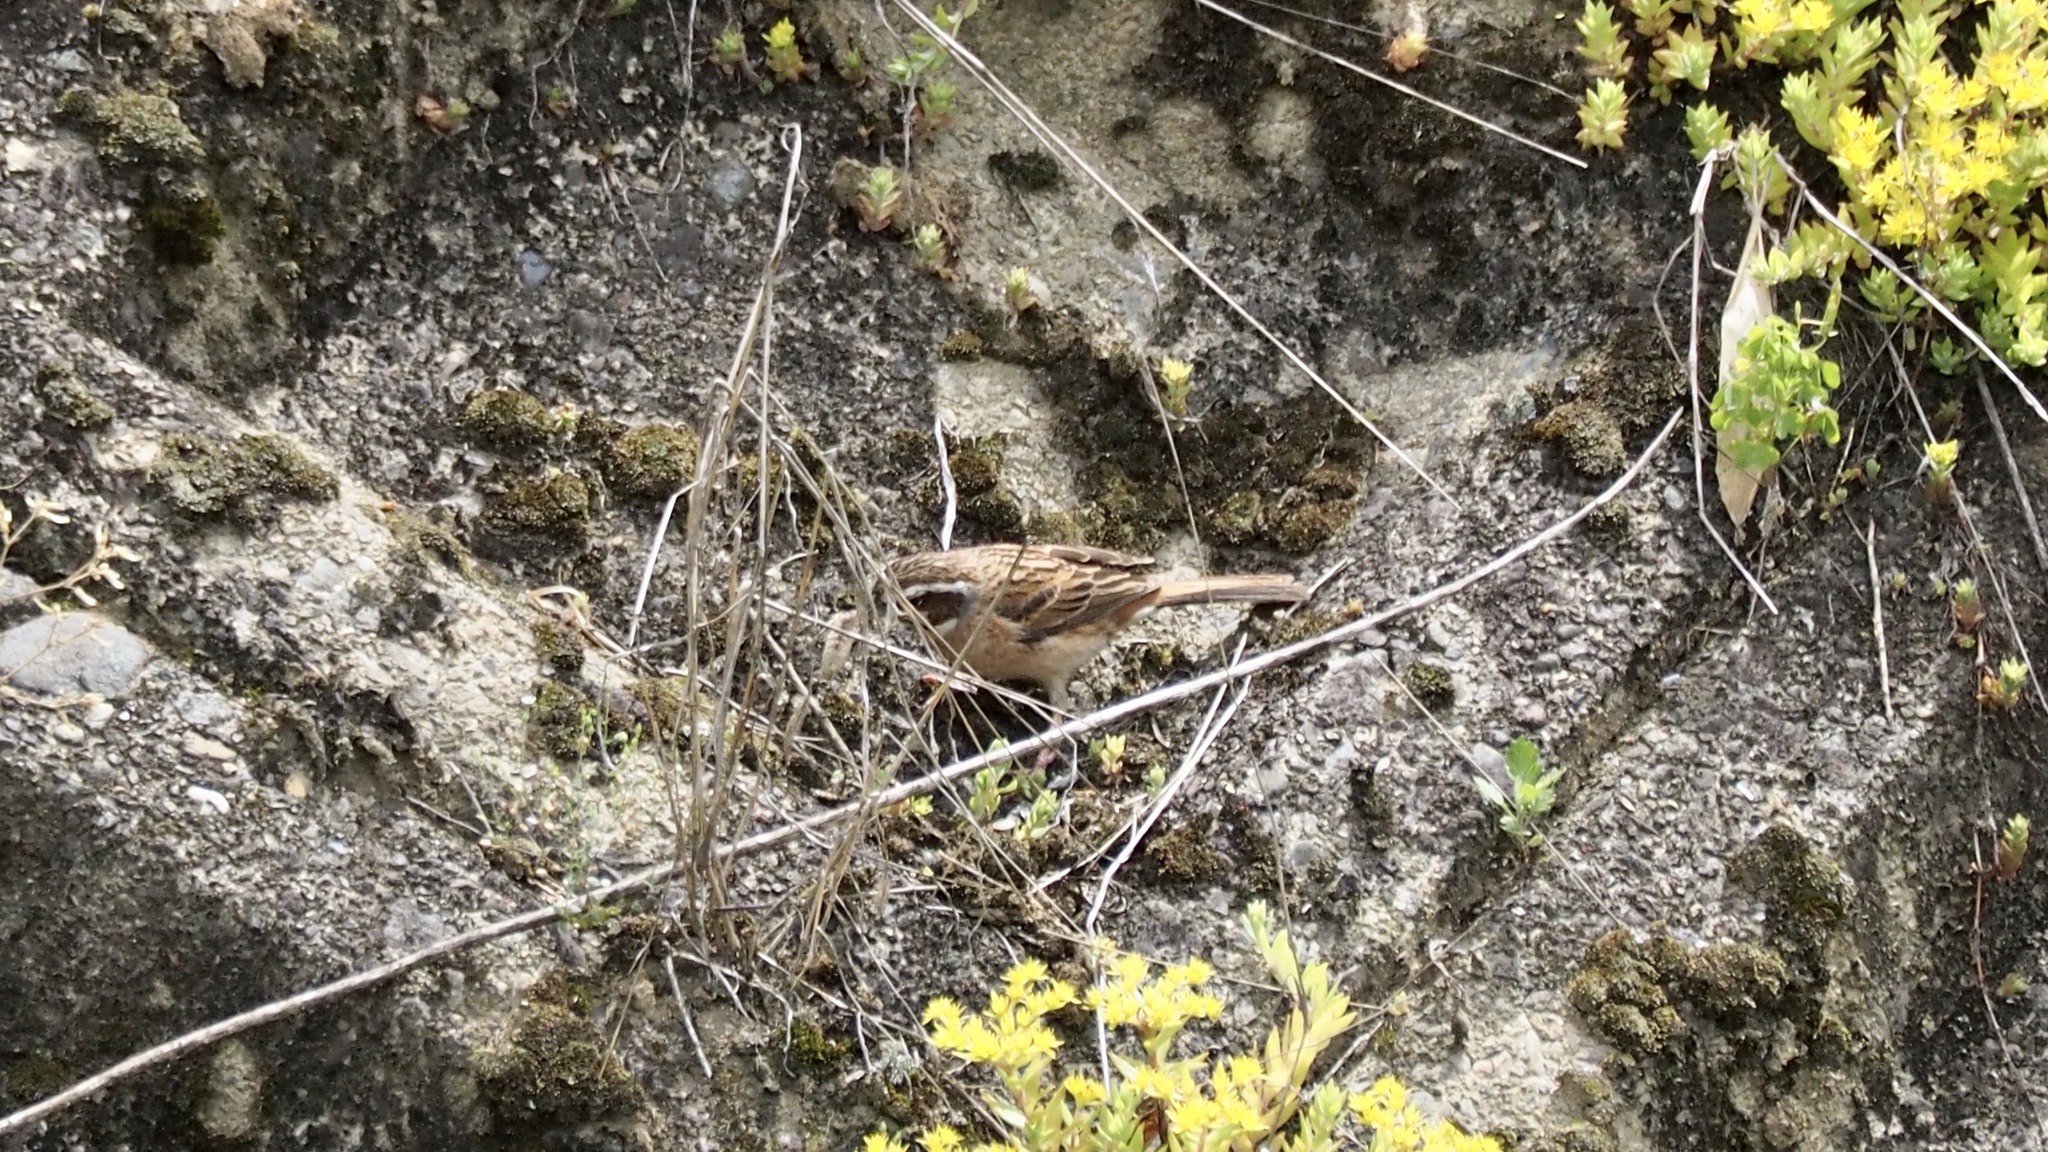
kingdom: Animalia
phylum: Chordata
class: Aves
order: Passeriformes
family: Emberizidae
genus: Emberiza
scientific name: Emberiza cioides
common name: Meadow bunting
